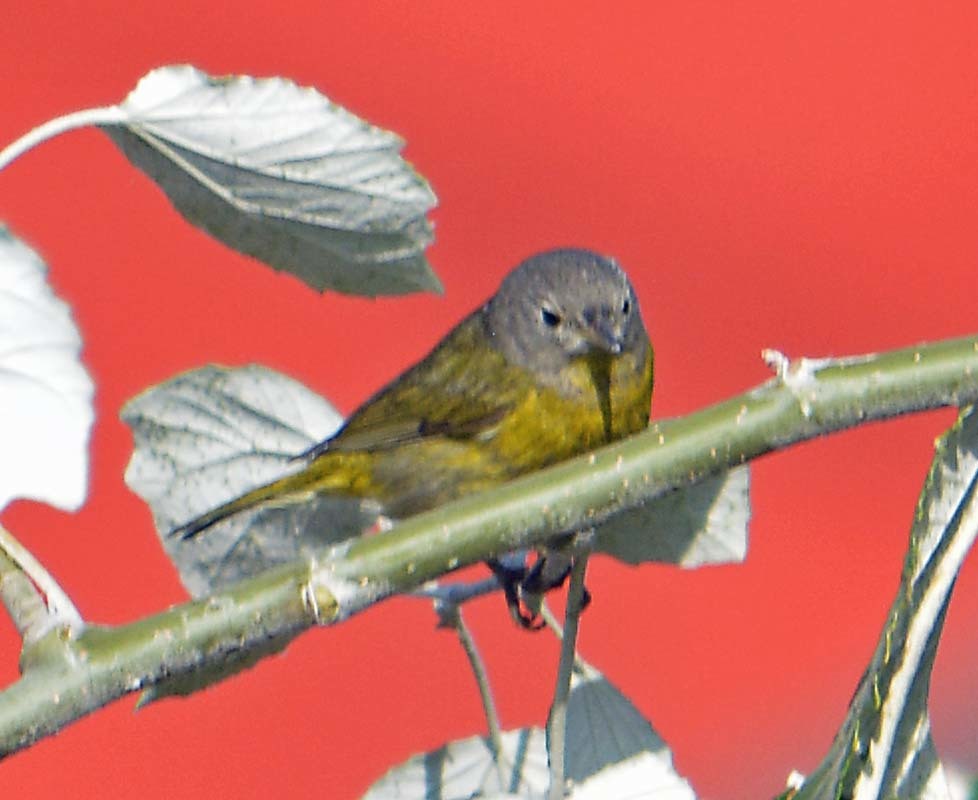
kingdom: Animalia
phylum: Chordata
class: Aves
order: Passeriformes
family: Parulidae
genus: Leiothlypis
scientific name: Leiothlypis ruficapilla
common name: Nashville warbler
